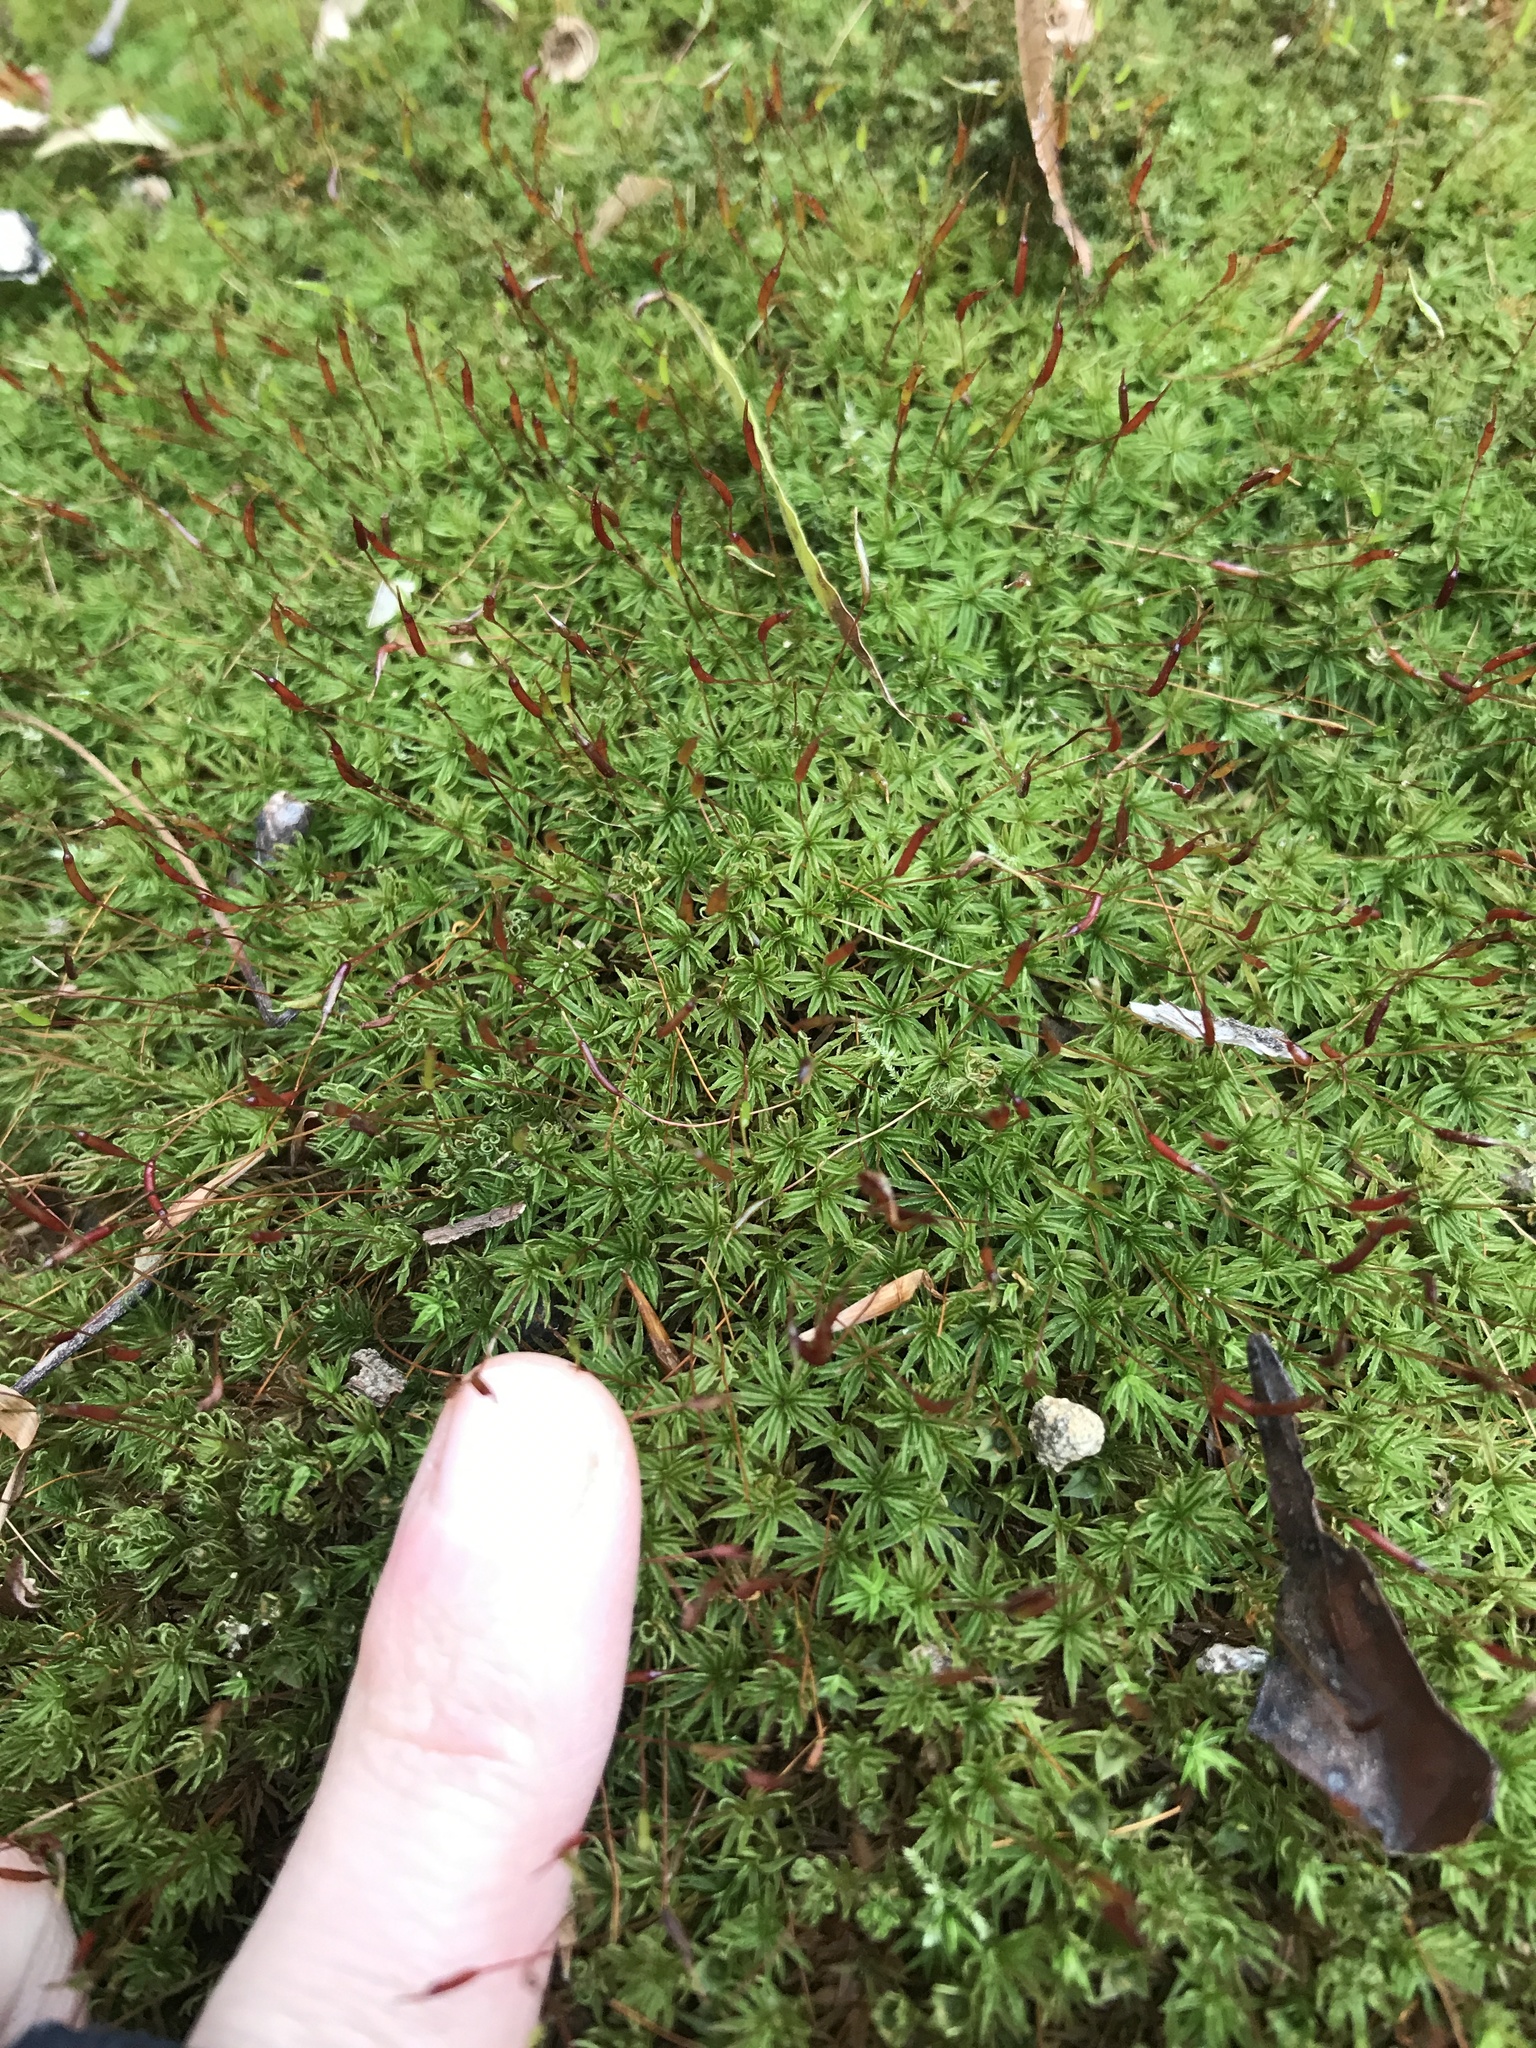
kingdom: Plantae
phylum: Bryophyta
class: Polytrichopsida
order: Polytrichales
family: Polytrichaceae
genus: Atrichum
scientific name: Atrichum angustatum
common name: Lesser smoothcap
